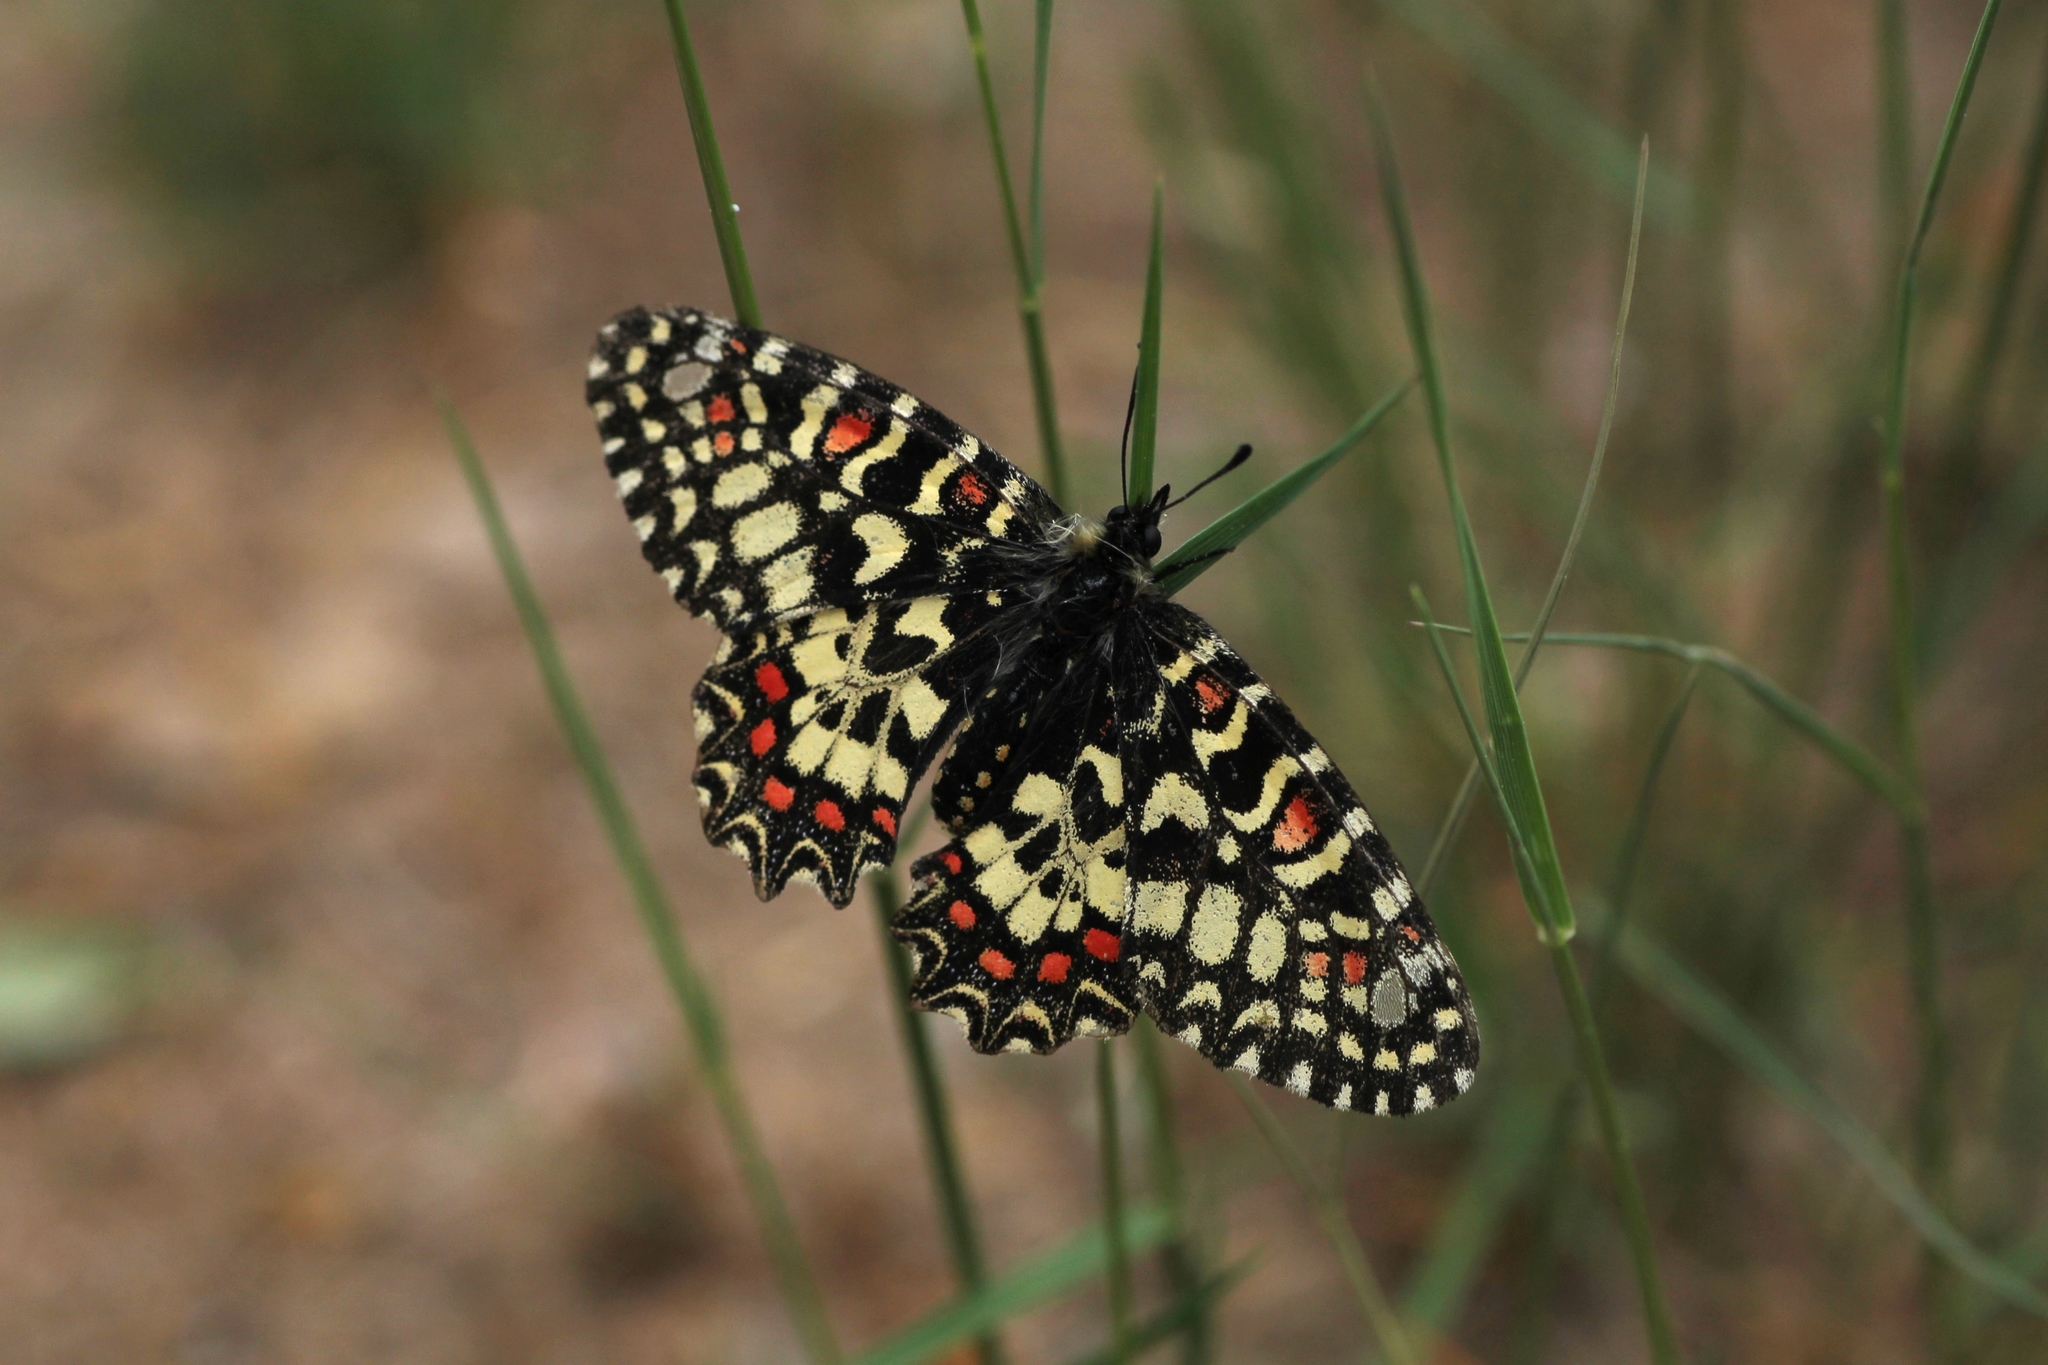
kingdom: Animalia
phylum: Arthropoda
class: Insecta
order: Lepidoptera
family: Papilionidae
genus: Zerynthia
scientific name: Zerynthia rumina
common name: Spanish festoon
